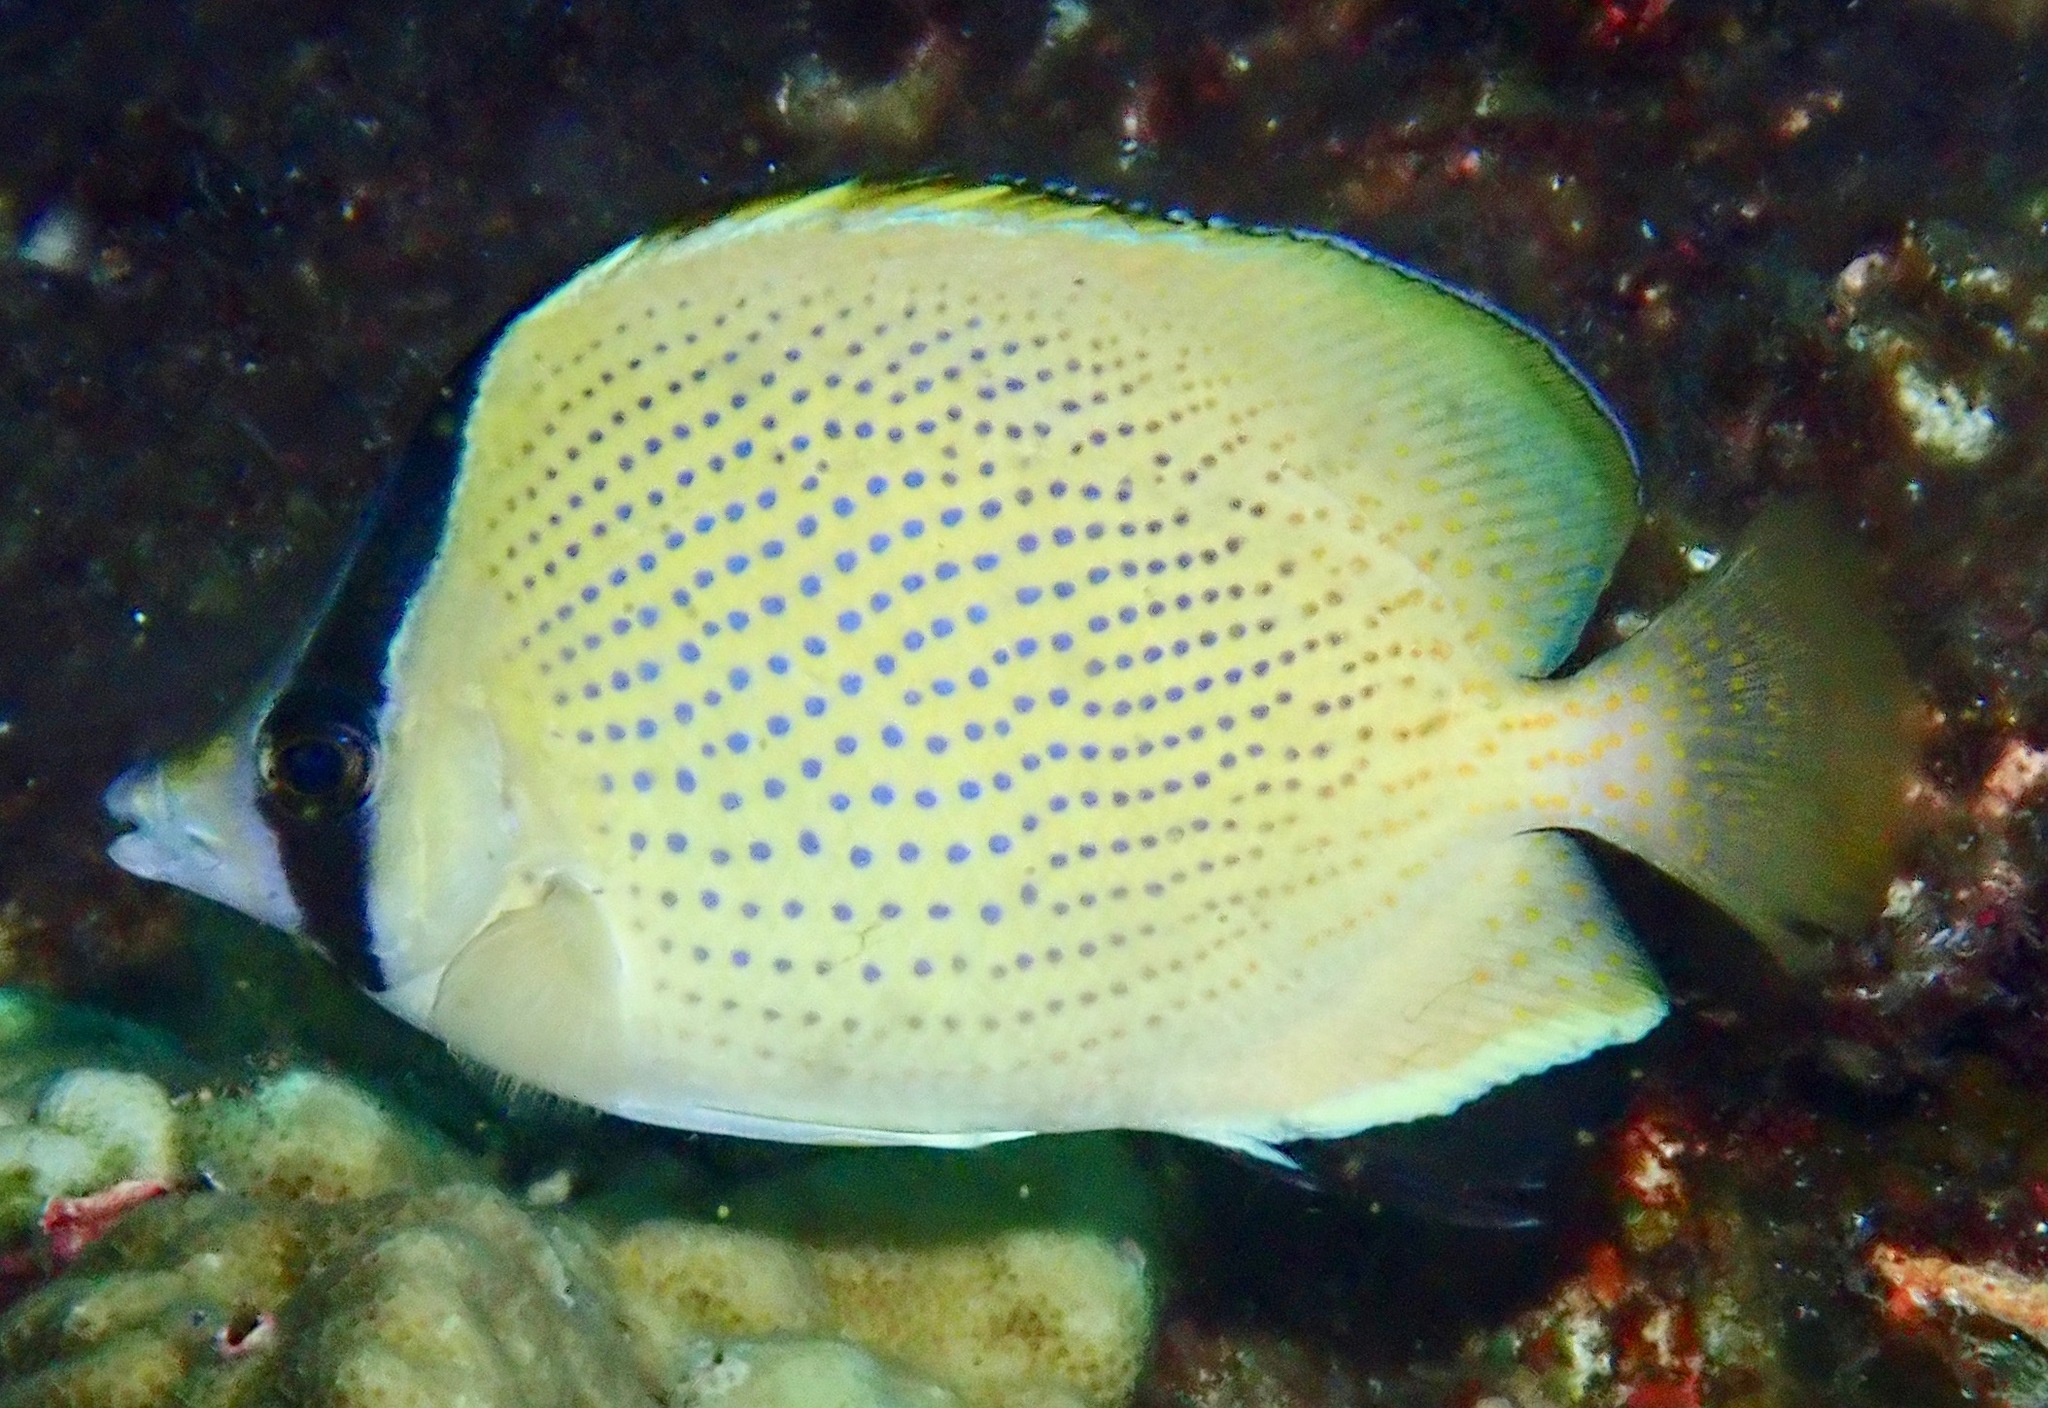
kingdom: Animalia
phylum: Chordata
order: Perciformes
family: Chaetodontidae
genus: Chaetodon
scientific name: Chaetodon citrinellus
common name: Speckled butterflyfish
